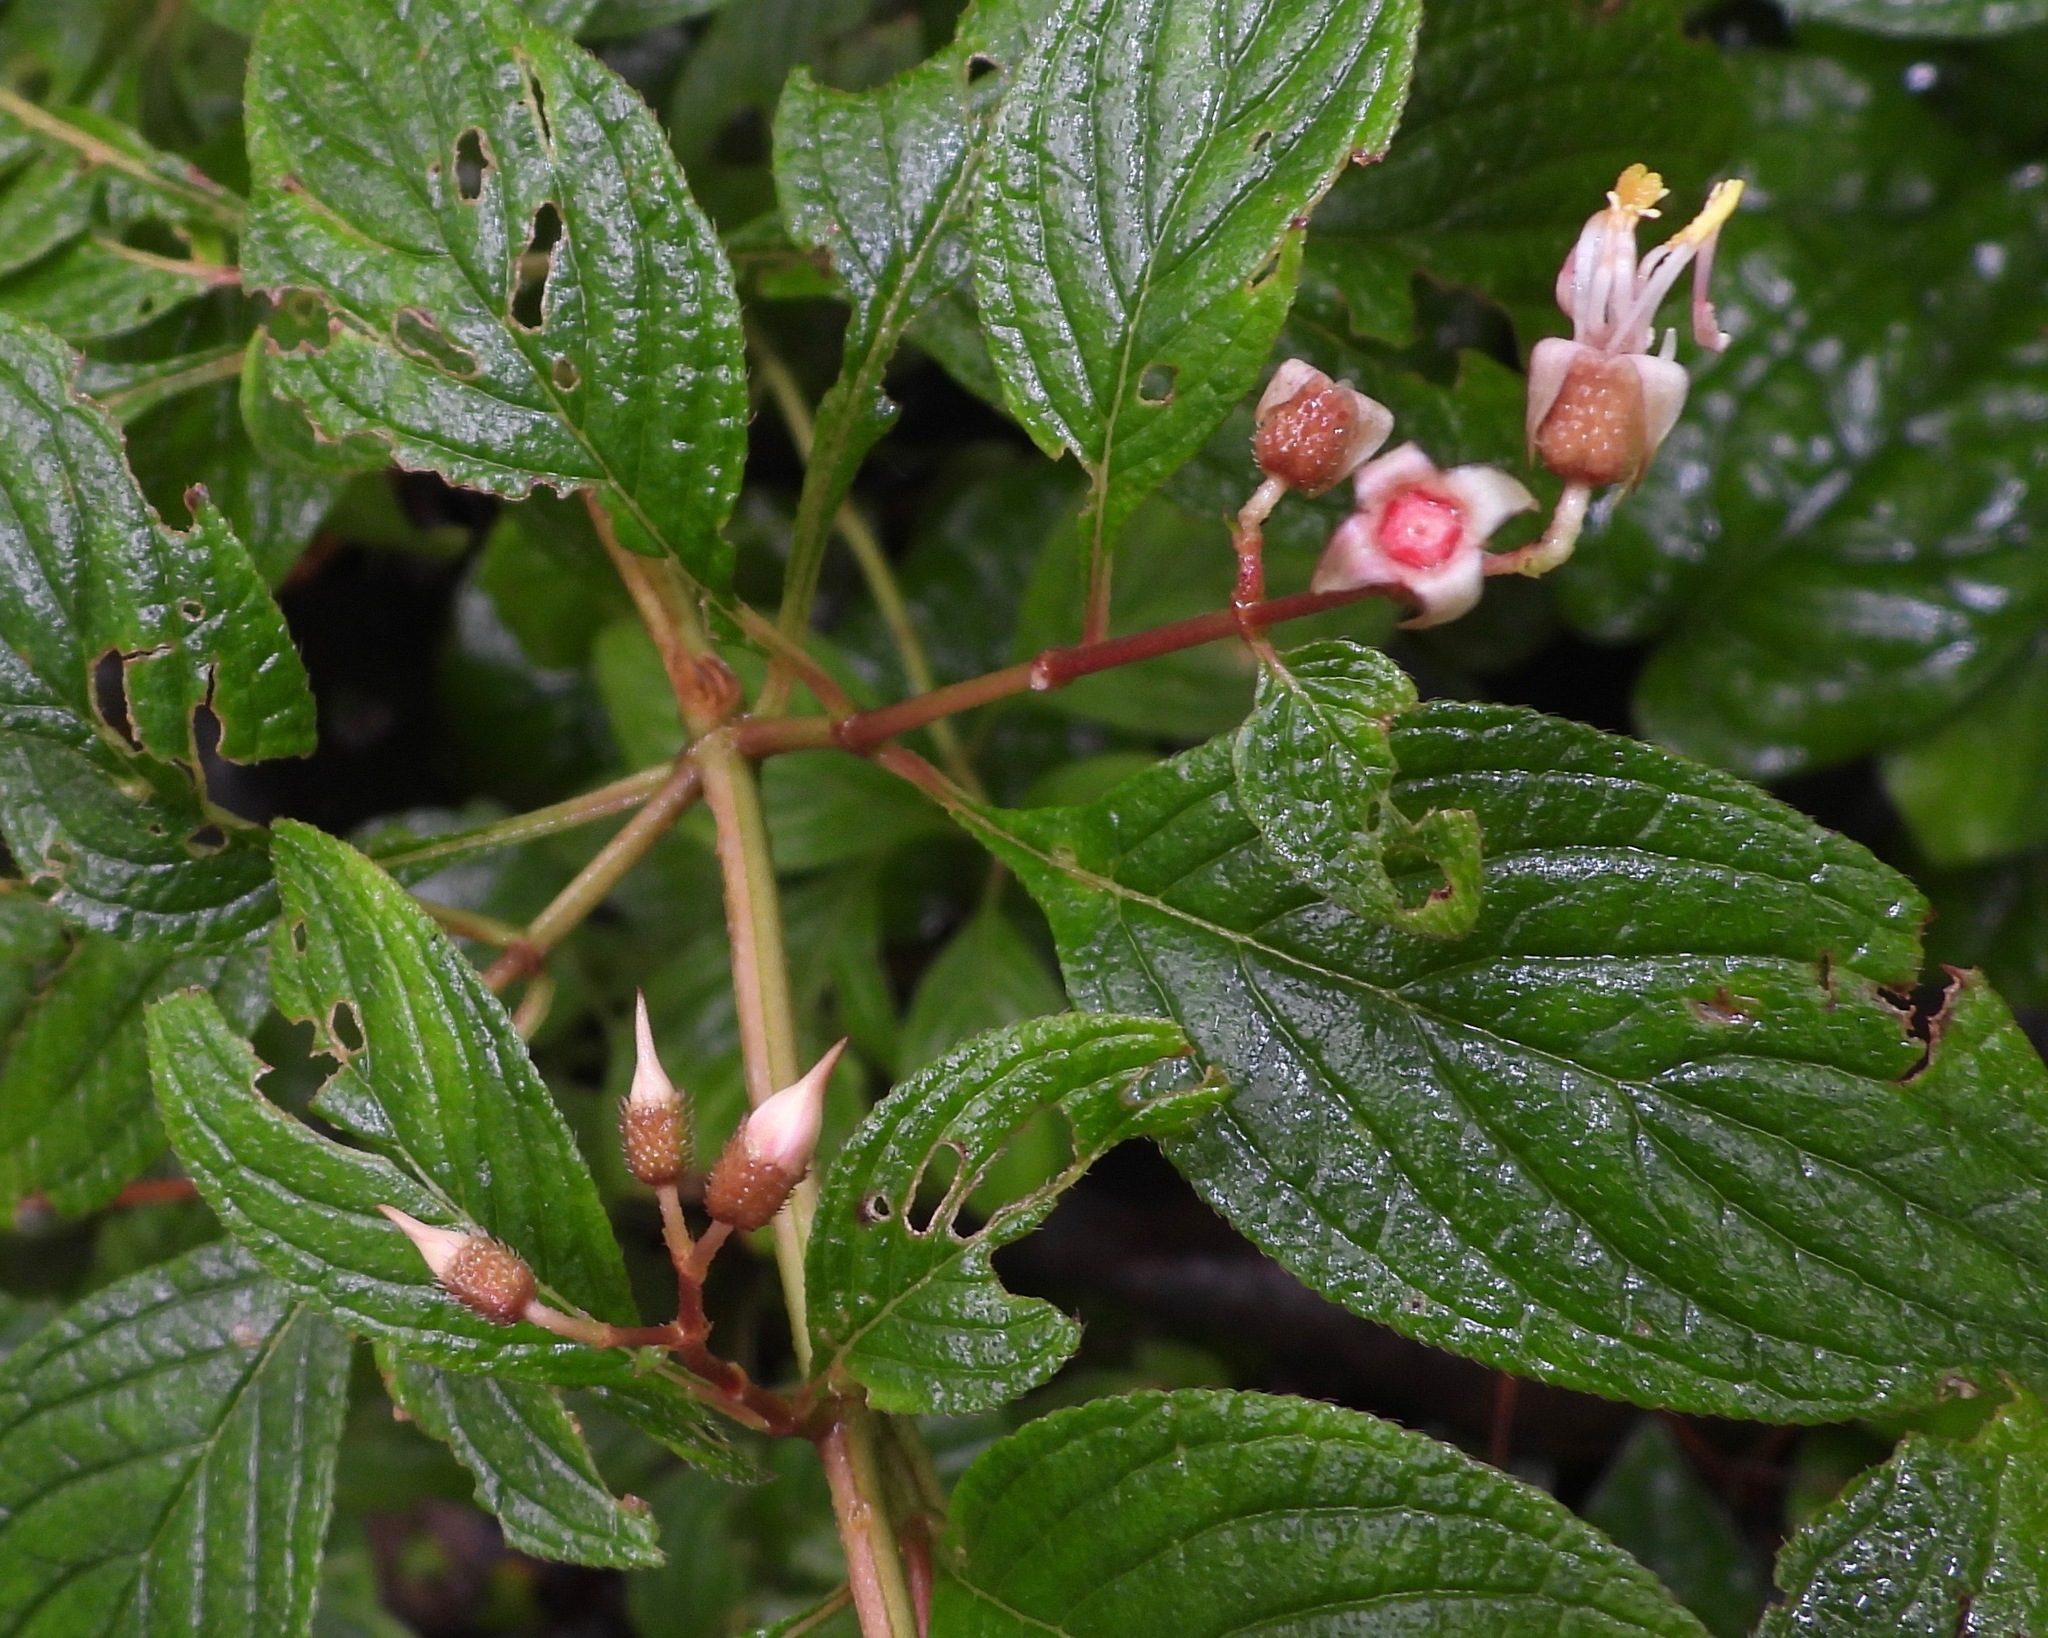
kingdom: Plantae
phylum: Tracheophyta
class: Magnoliopsida
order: Myrtales
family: Melastomataceae
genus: Heterocentron
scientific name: Heterocentron subtriplinervium
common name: Pearl flower
